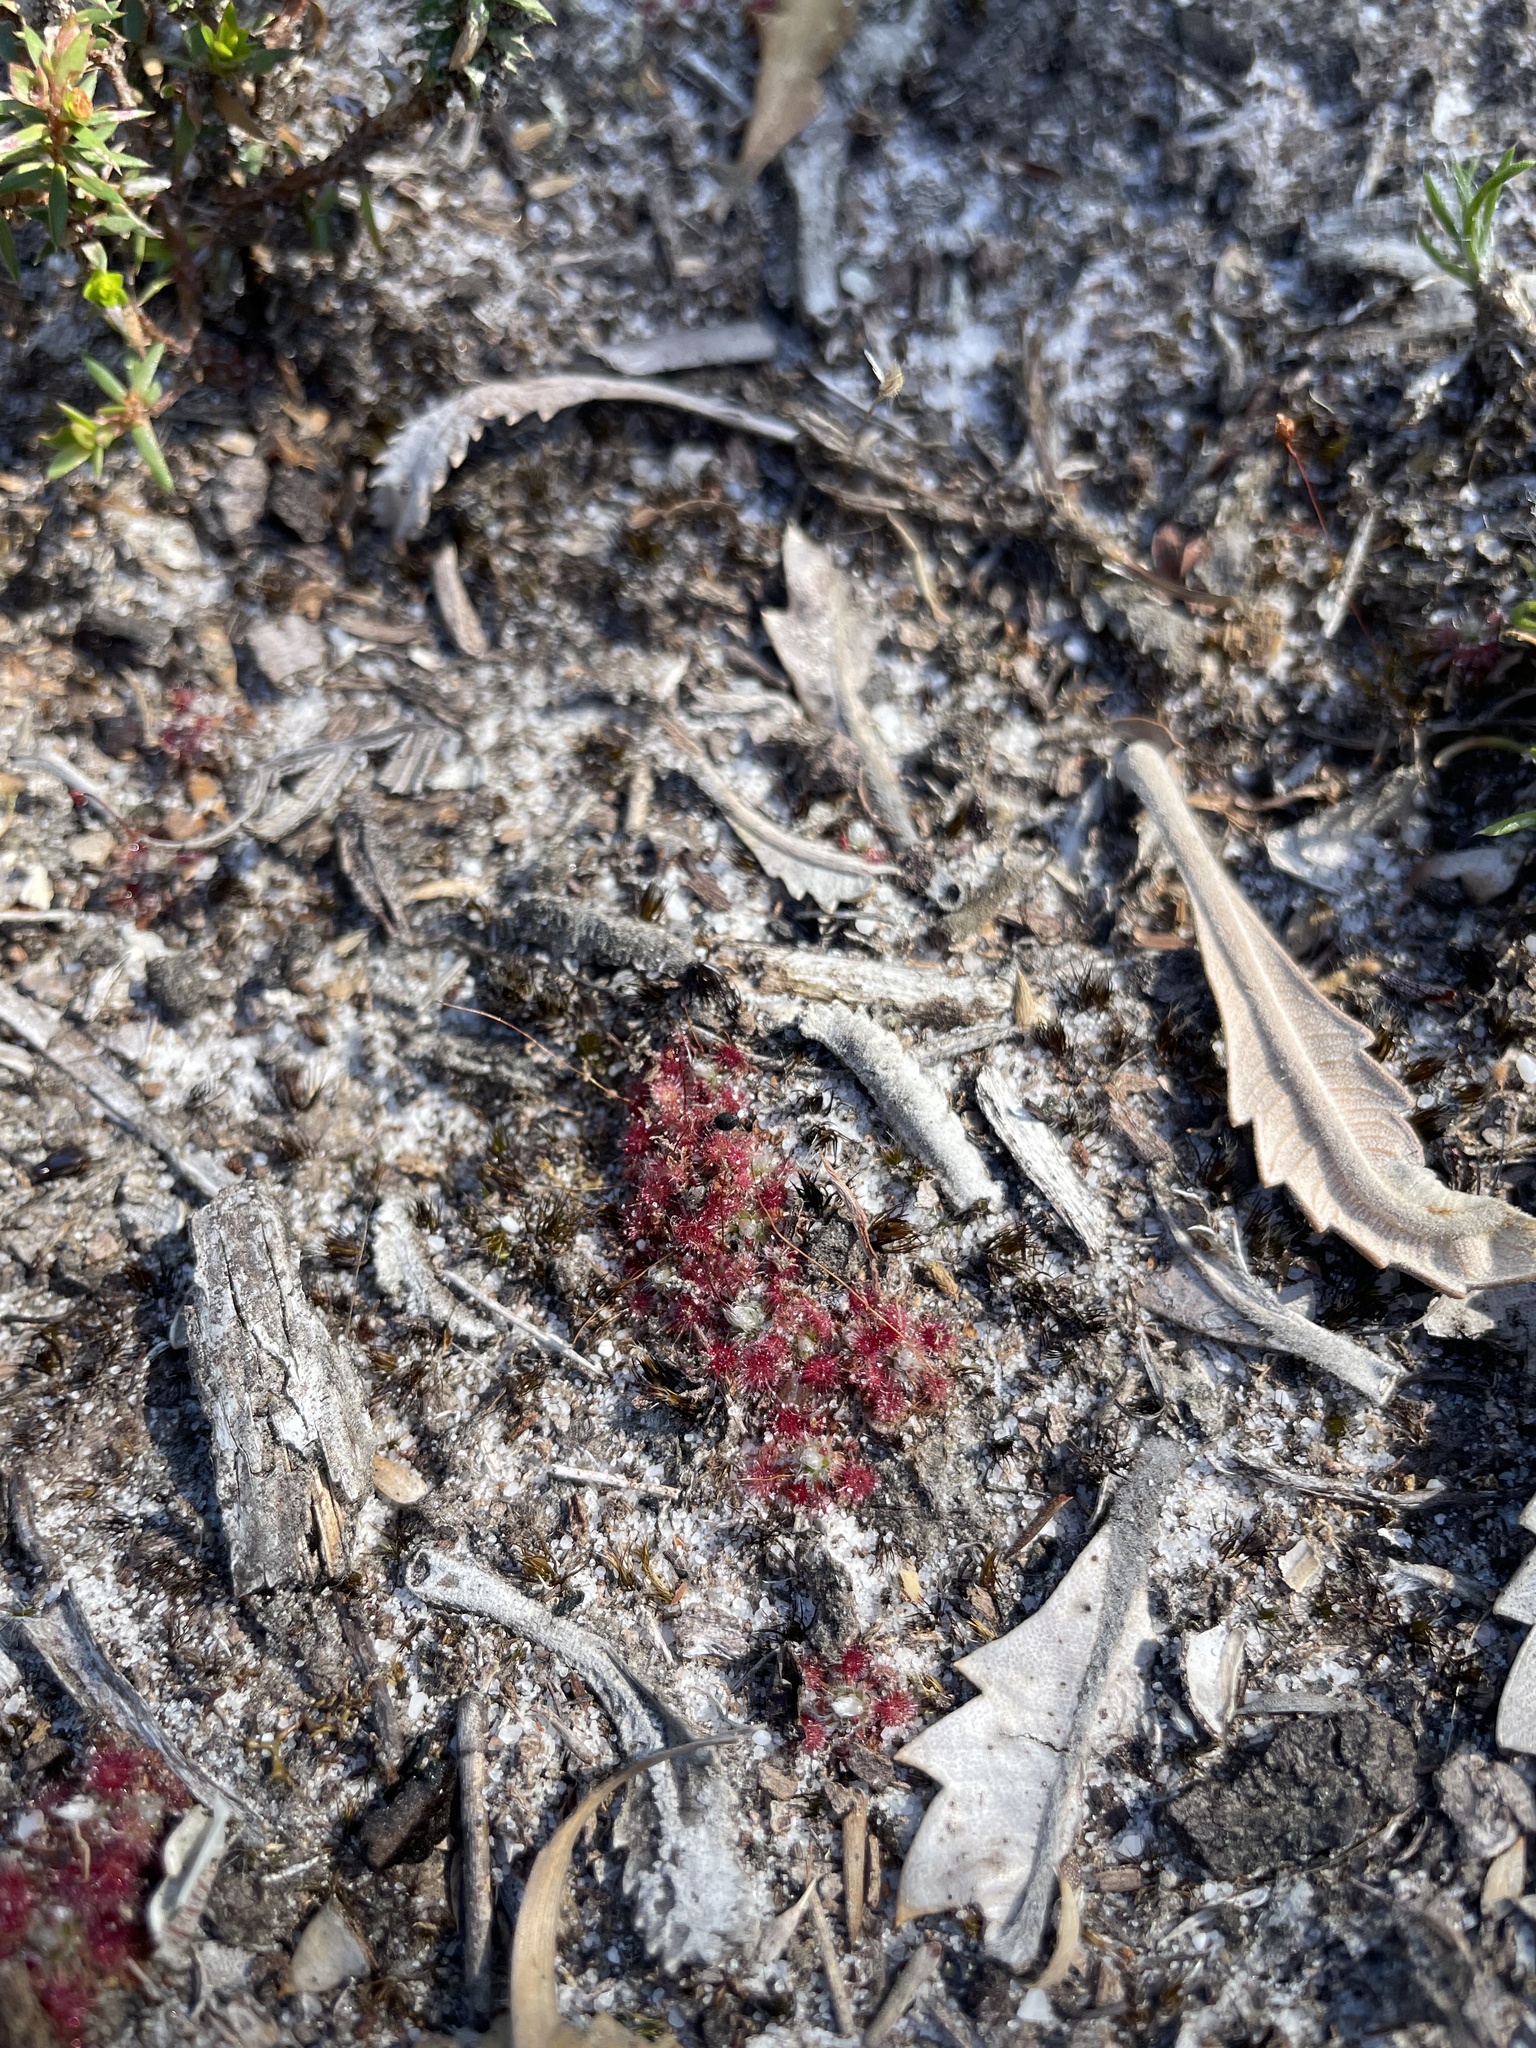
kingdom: Plantae
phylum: Tracheophyta
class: Magnoliopsida
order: Caryophyllales
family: Droseraceae
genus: Drosera
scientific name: Drosera pygmaea
